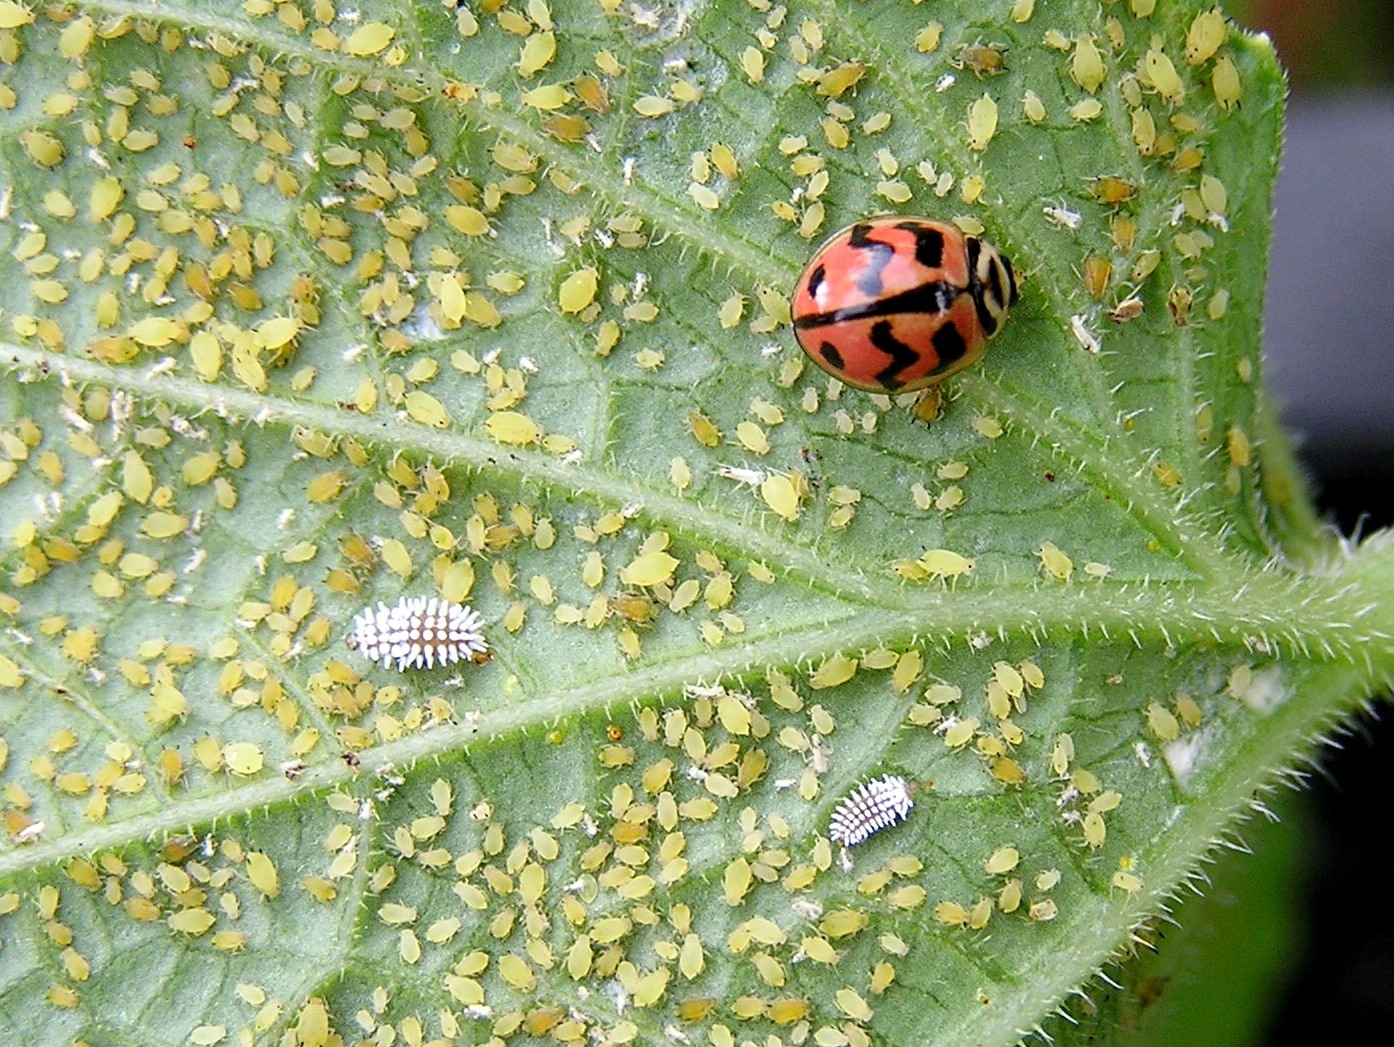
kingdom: Animalia
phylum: Arthropoda
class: Insecta
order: Coleoptera
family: Coccinellidae
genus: Cheilomenes
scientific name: Cheilomenes sexmaculata
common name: Ladybird beetle
